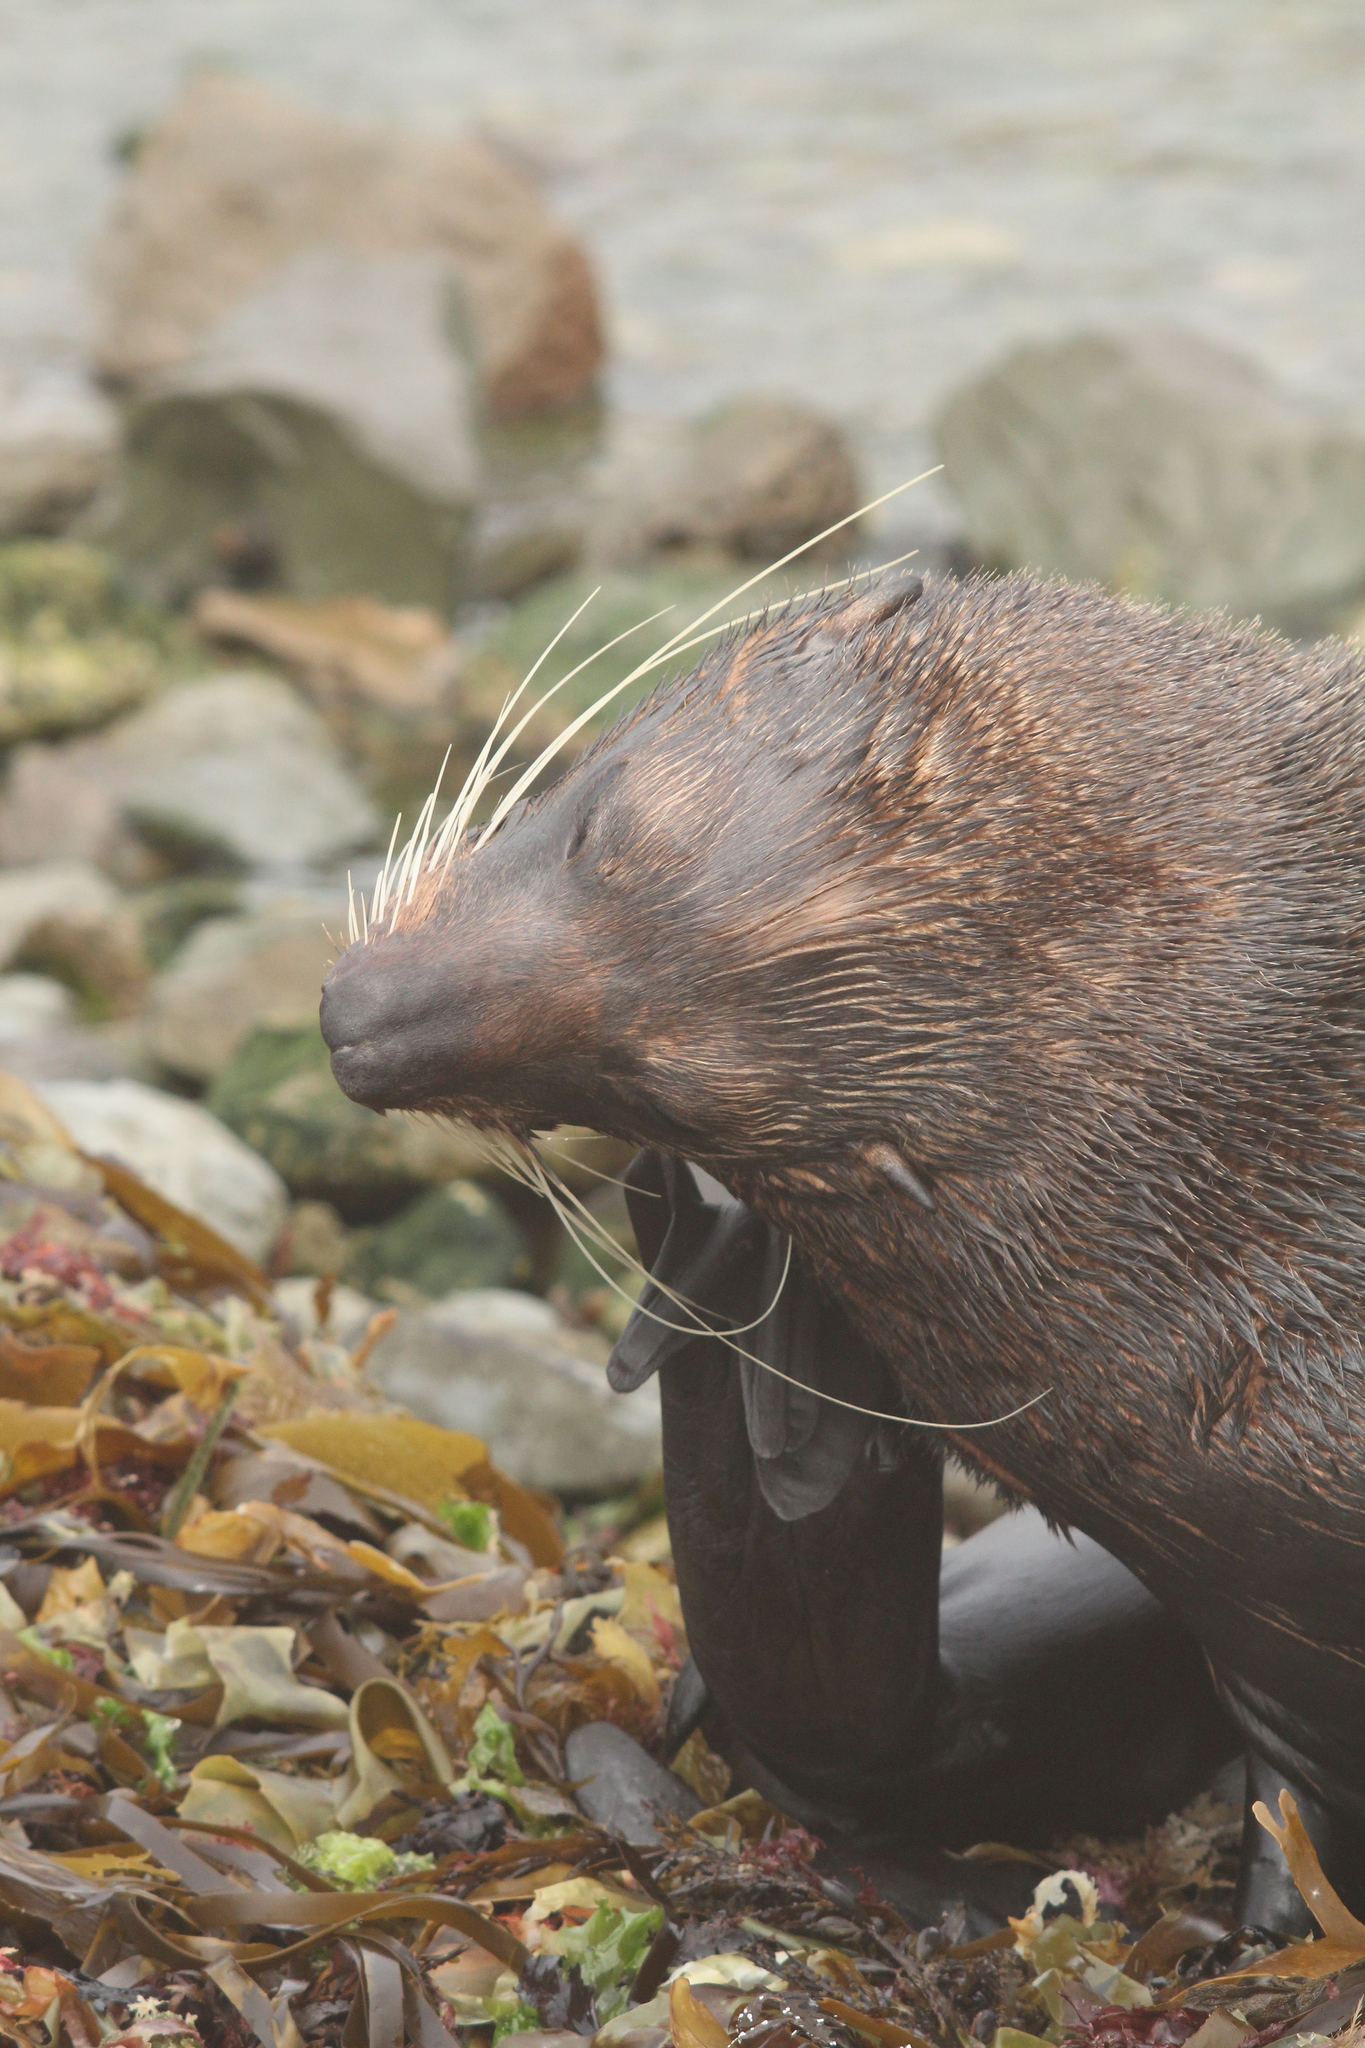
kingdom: Animalia
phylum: Chordata
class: Mammalia
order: Carnivora
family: Otariidae
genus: Arctocephalus
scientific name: Arctocephalus forsteri
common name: New zealand fur seal
